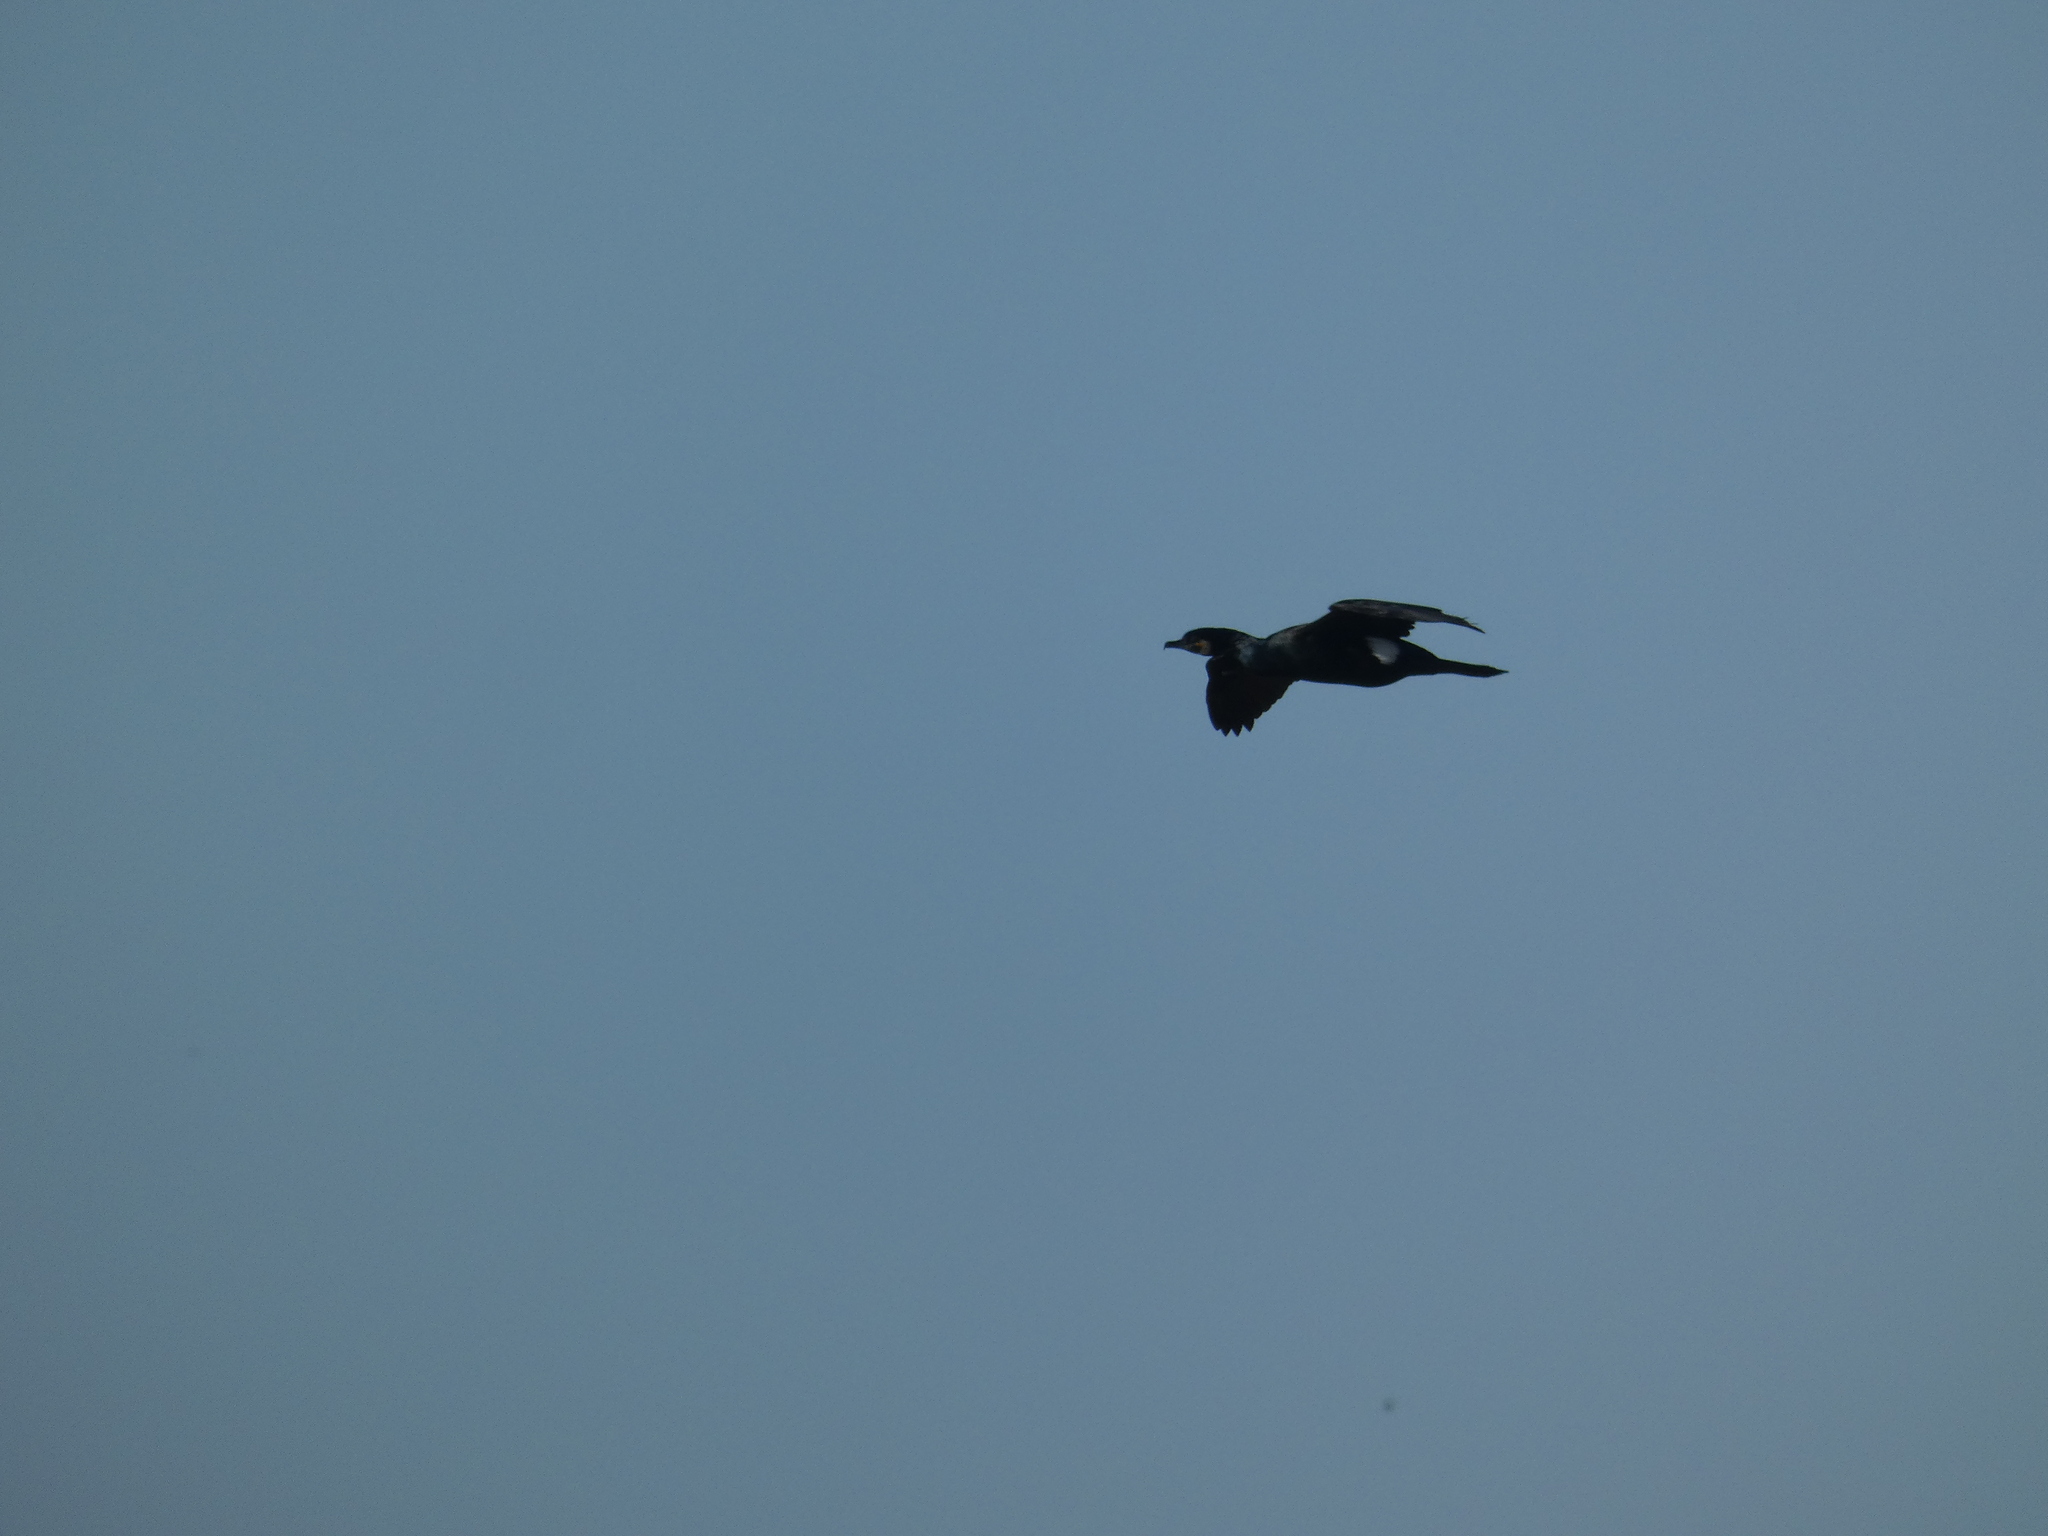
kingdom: Animalia
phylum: Chordata
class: Aves
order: Suliformes
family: Phalacrocoracidae
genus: Phalacrocorax
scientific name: Phalacrocorax carbo
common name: Great cormorant
